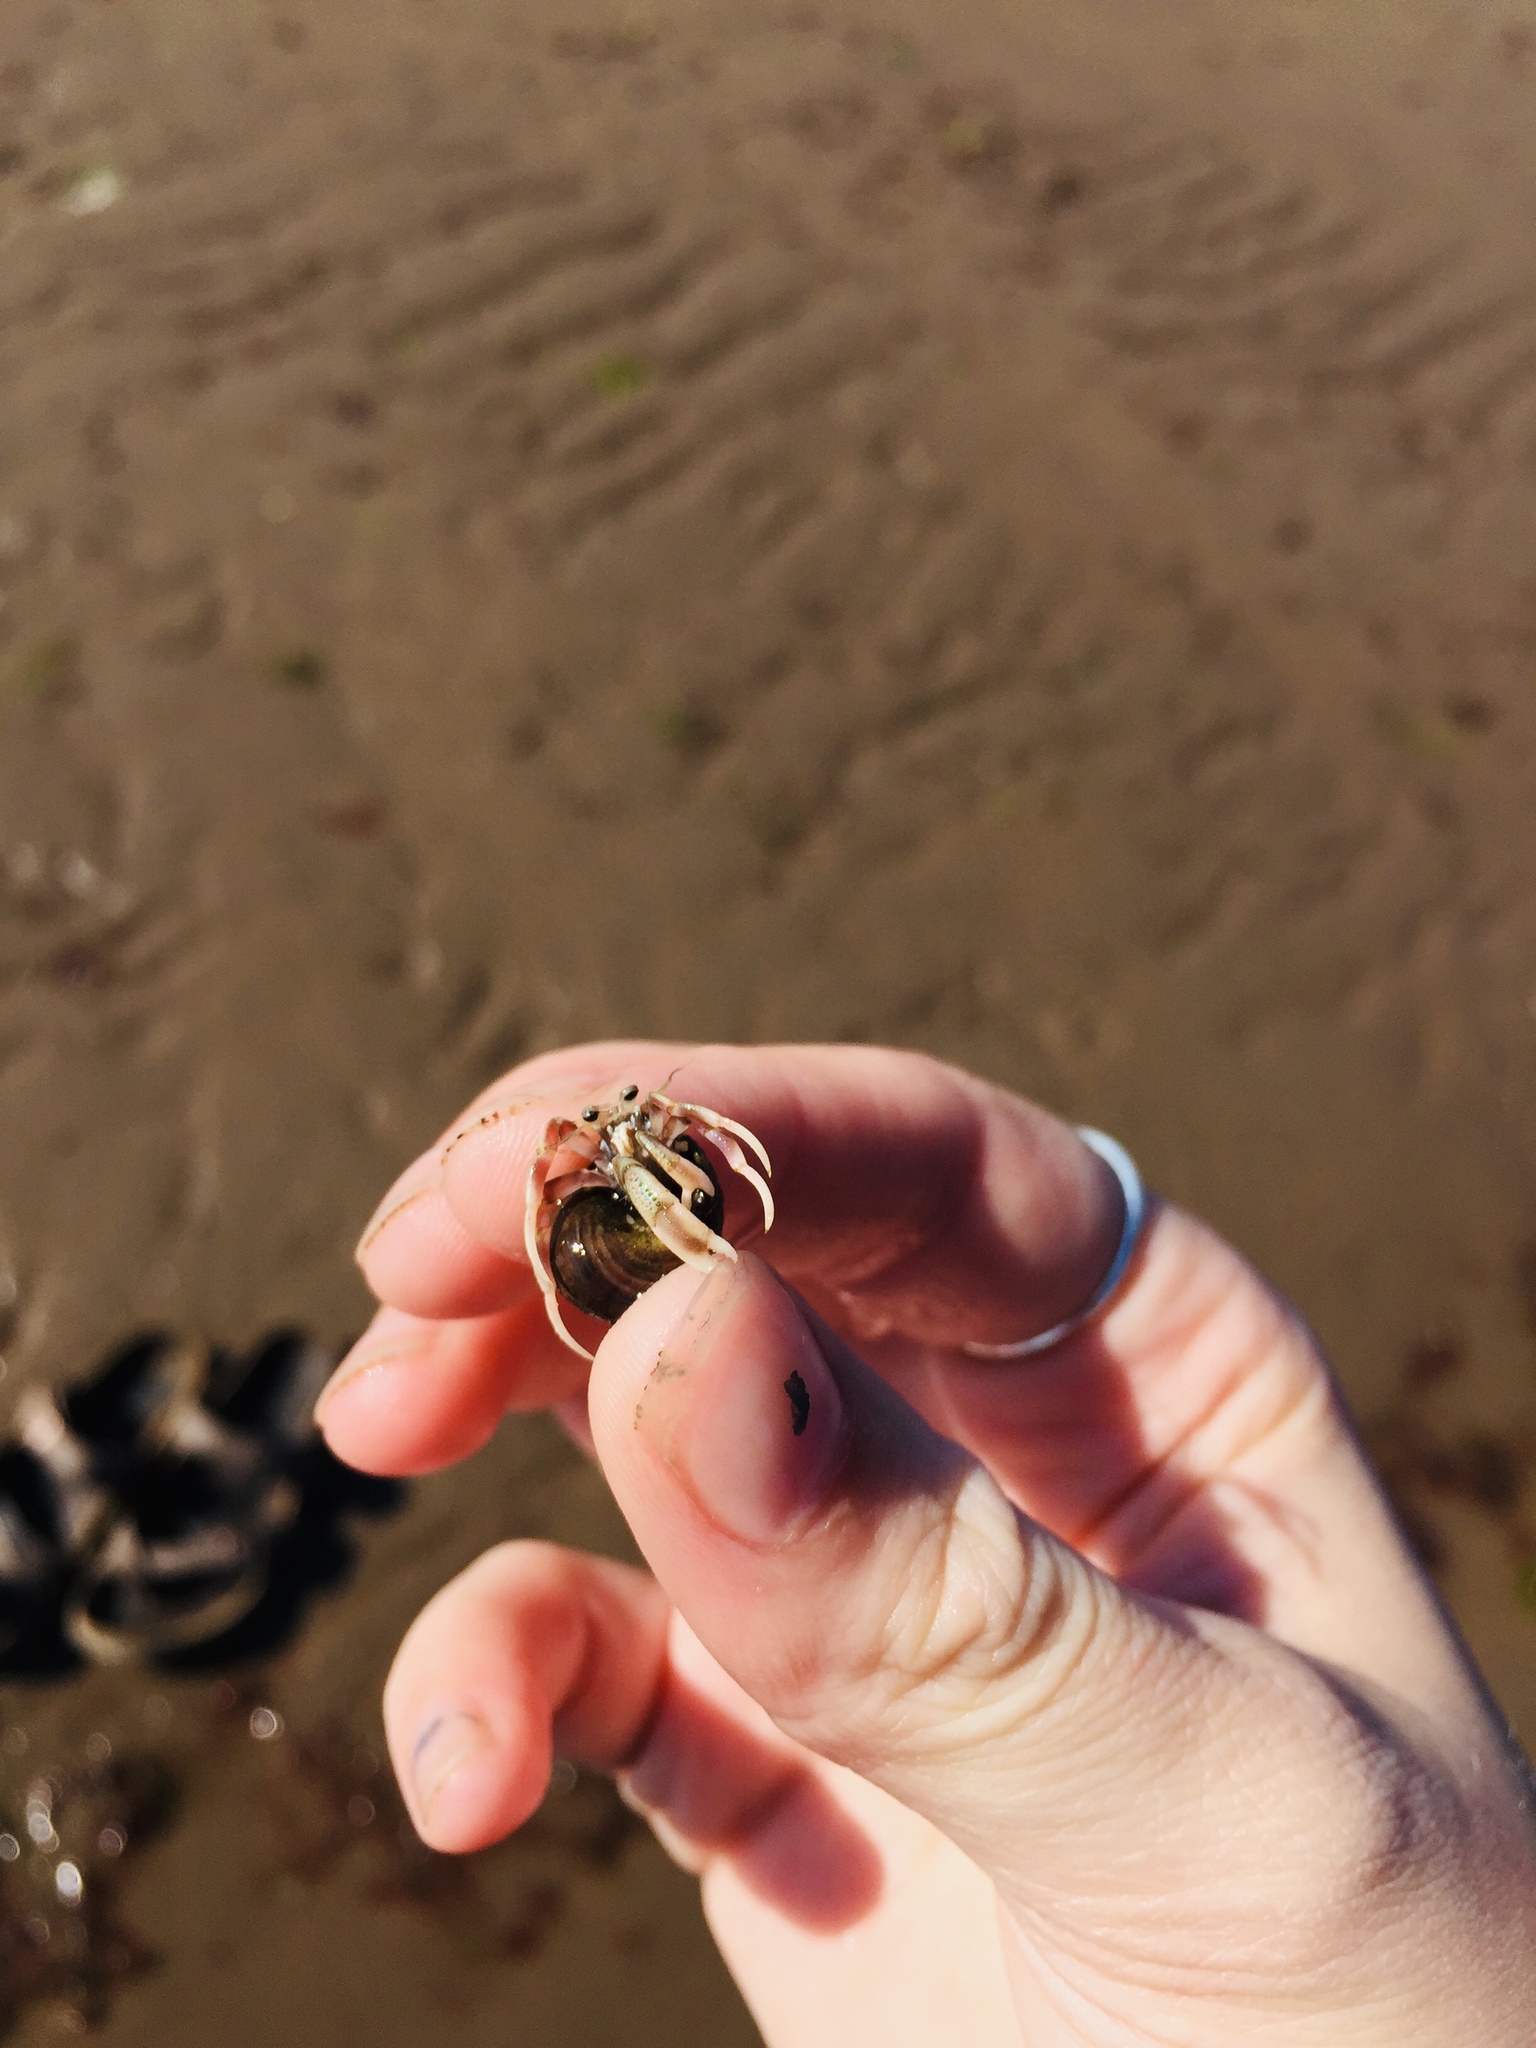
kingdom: Animalia
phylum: Arthropoda
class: Malacostraca
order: Decapoda
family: Paguridae
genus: Pagurus
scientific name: Pagurus longicarpus
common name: Long-armed hermit crab
